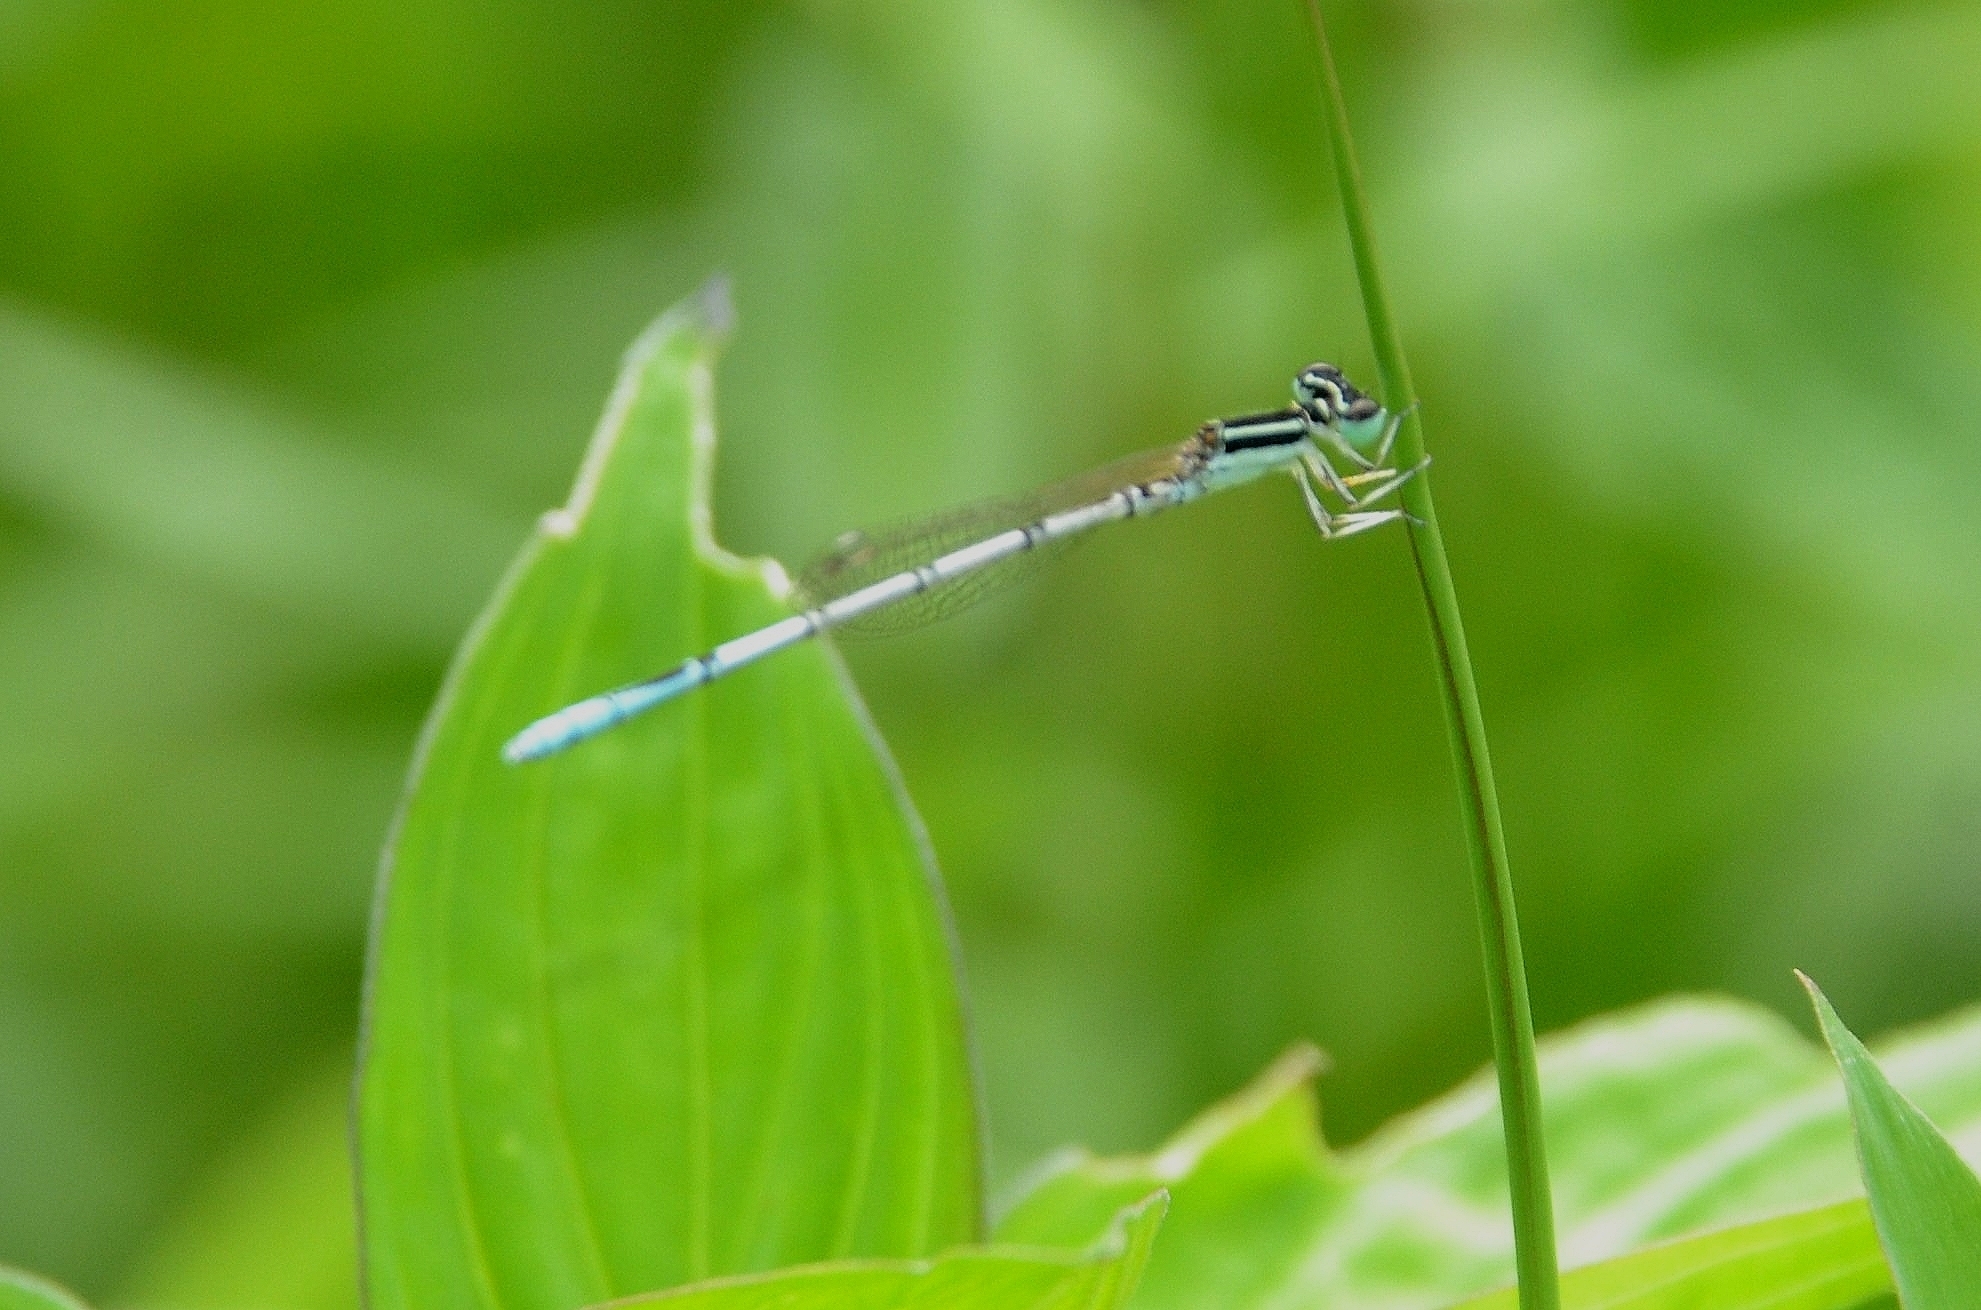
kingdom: Animalia
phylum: Arthropoda
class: Insecta
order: Odonata
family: Coenagrionidae
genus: Agriocnemis
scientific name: Agriocnemis pieris
